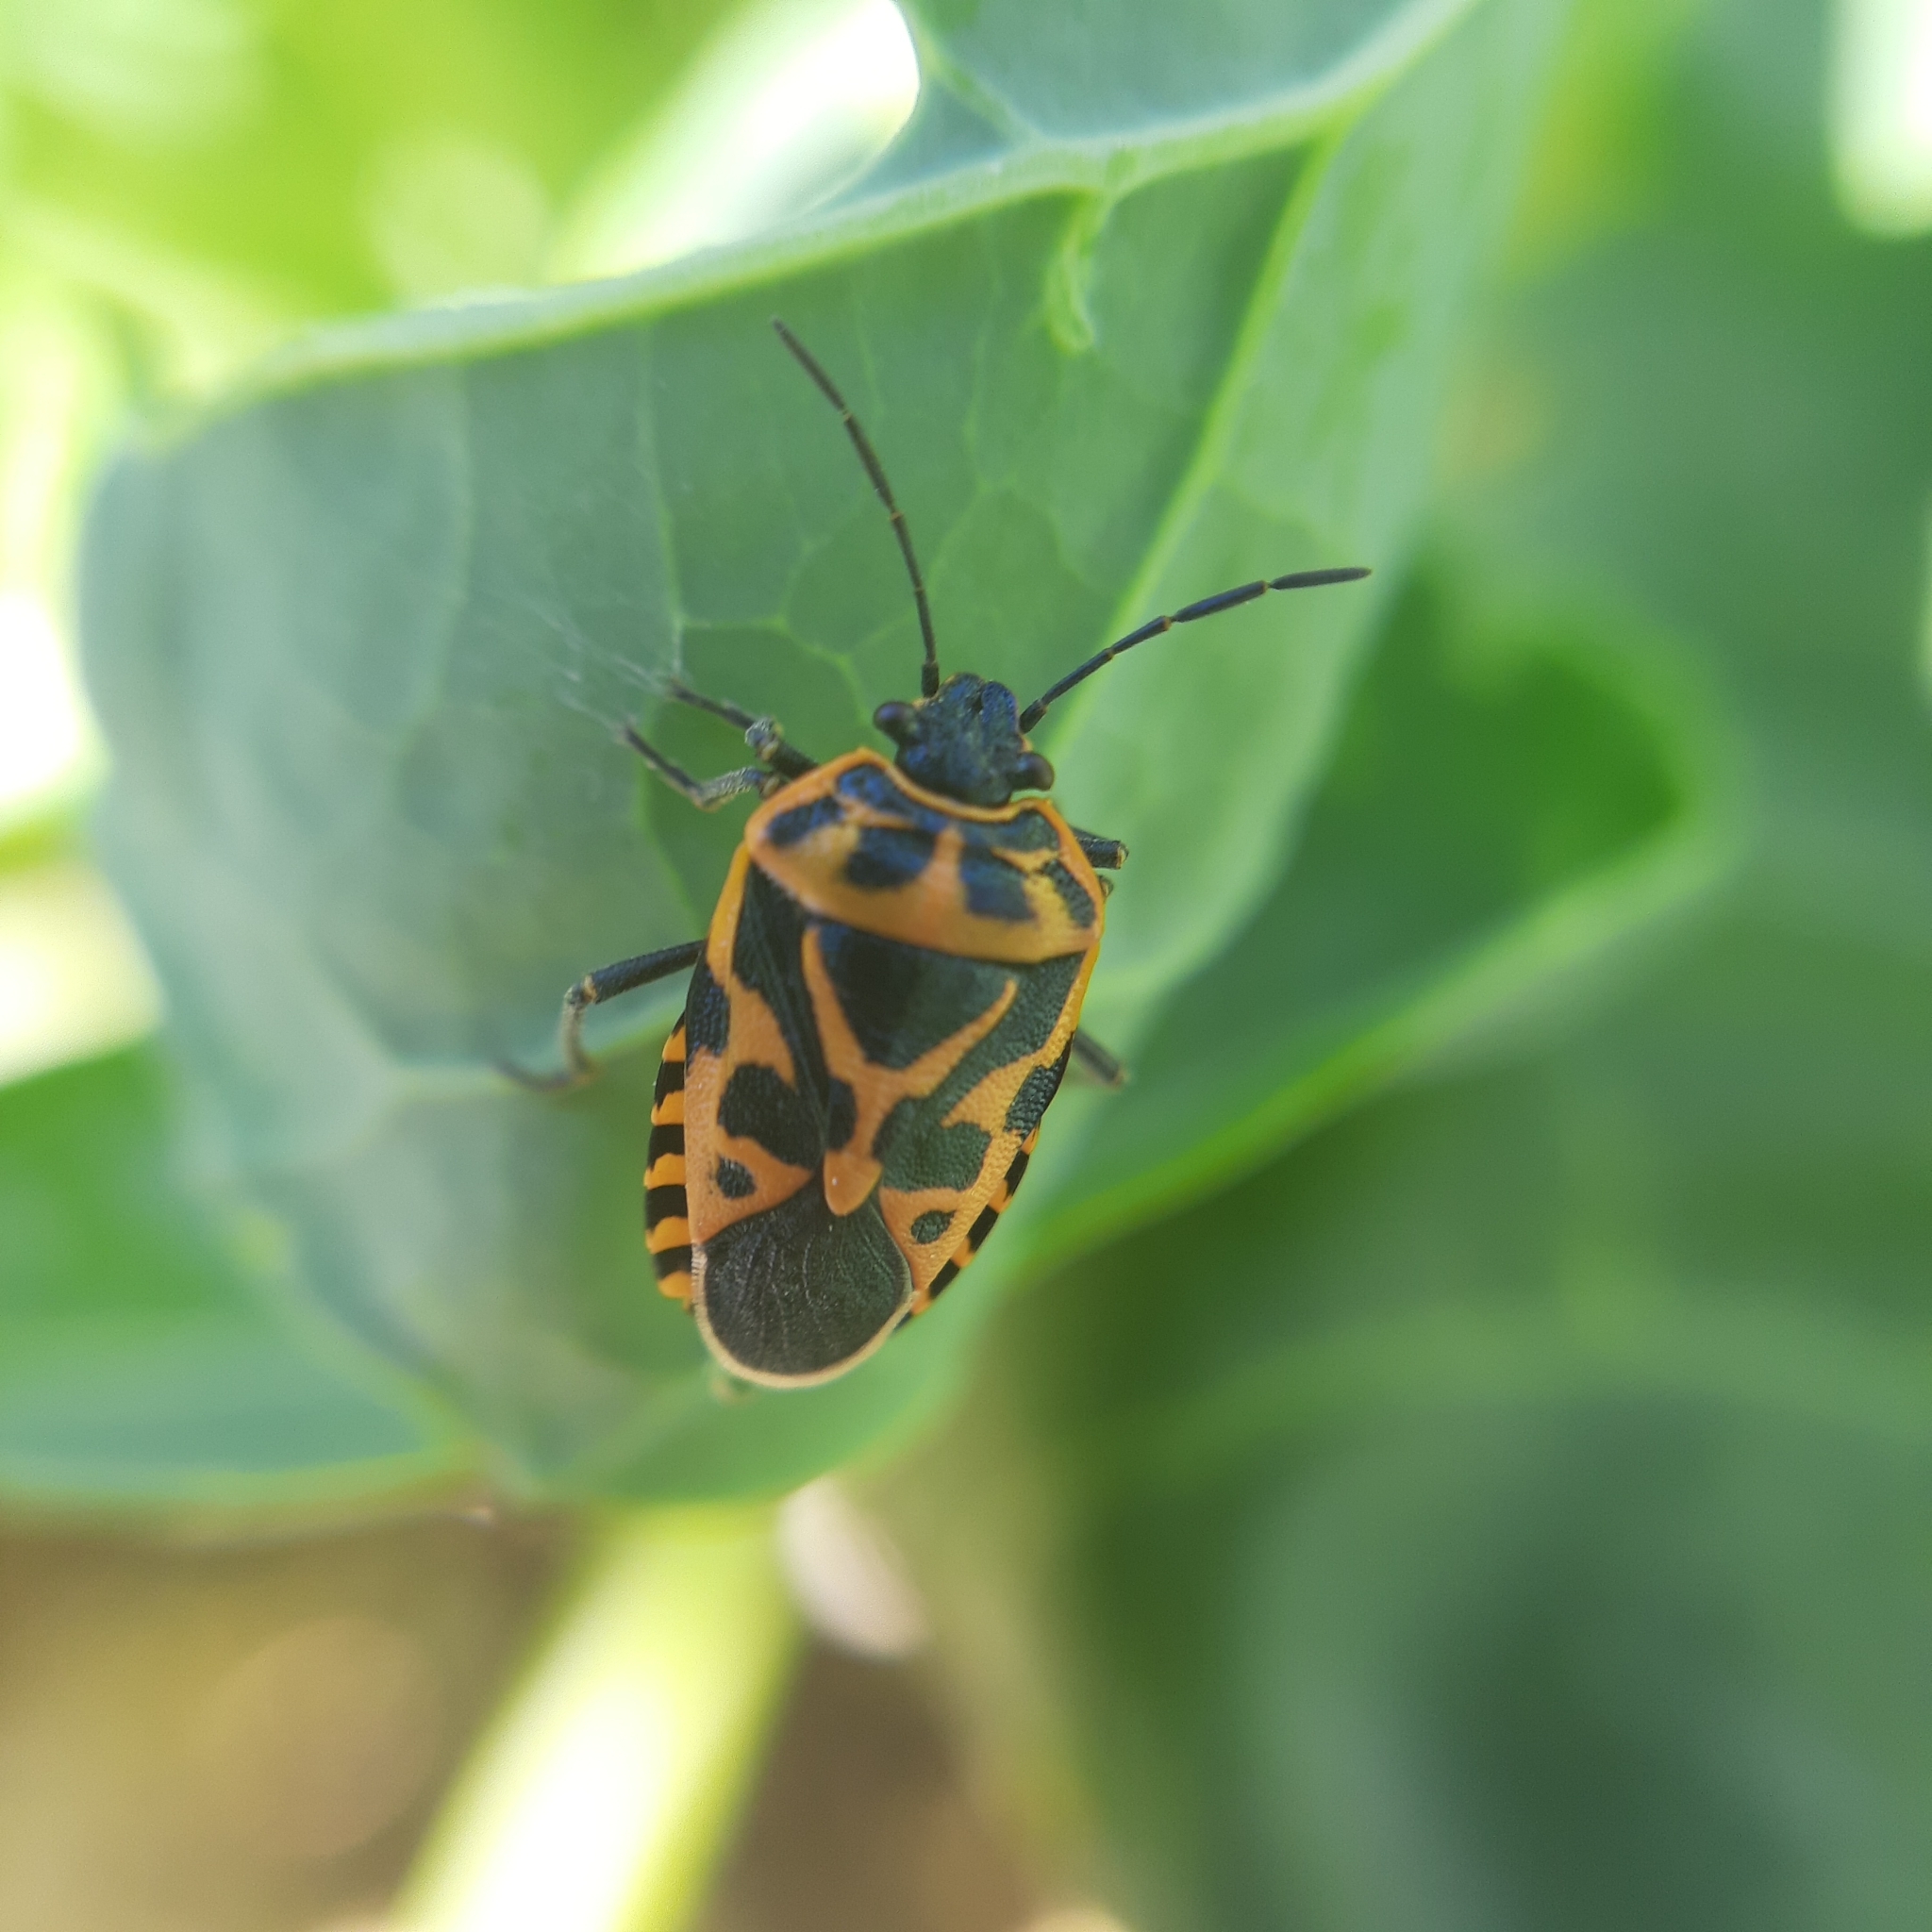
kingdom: Animalia
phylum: Arthropoda
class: Insecta
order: Hemiptera
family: Pentatomidae
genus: Eurydema
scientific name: Eurydema ventralis
